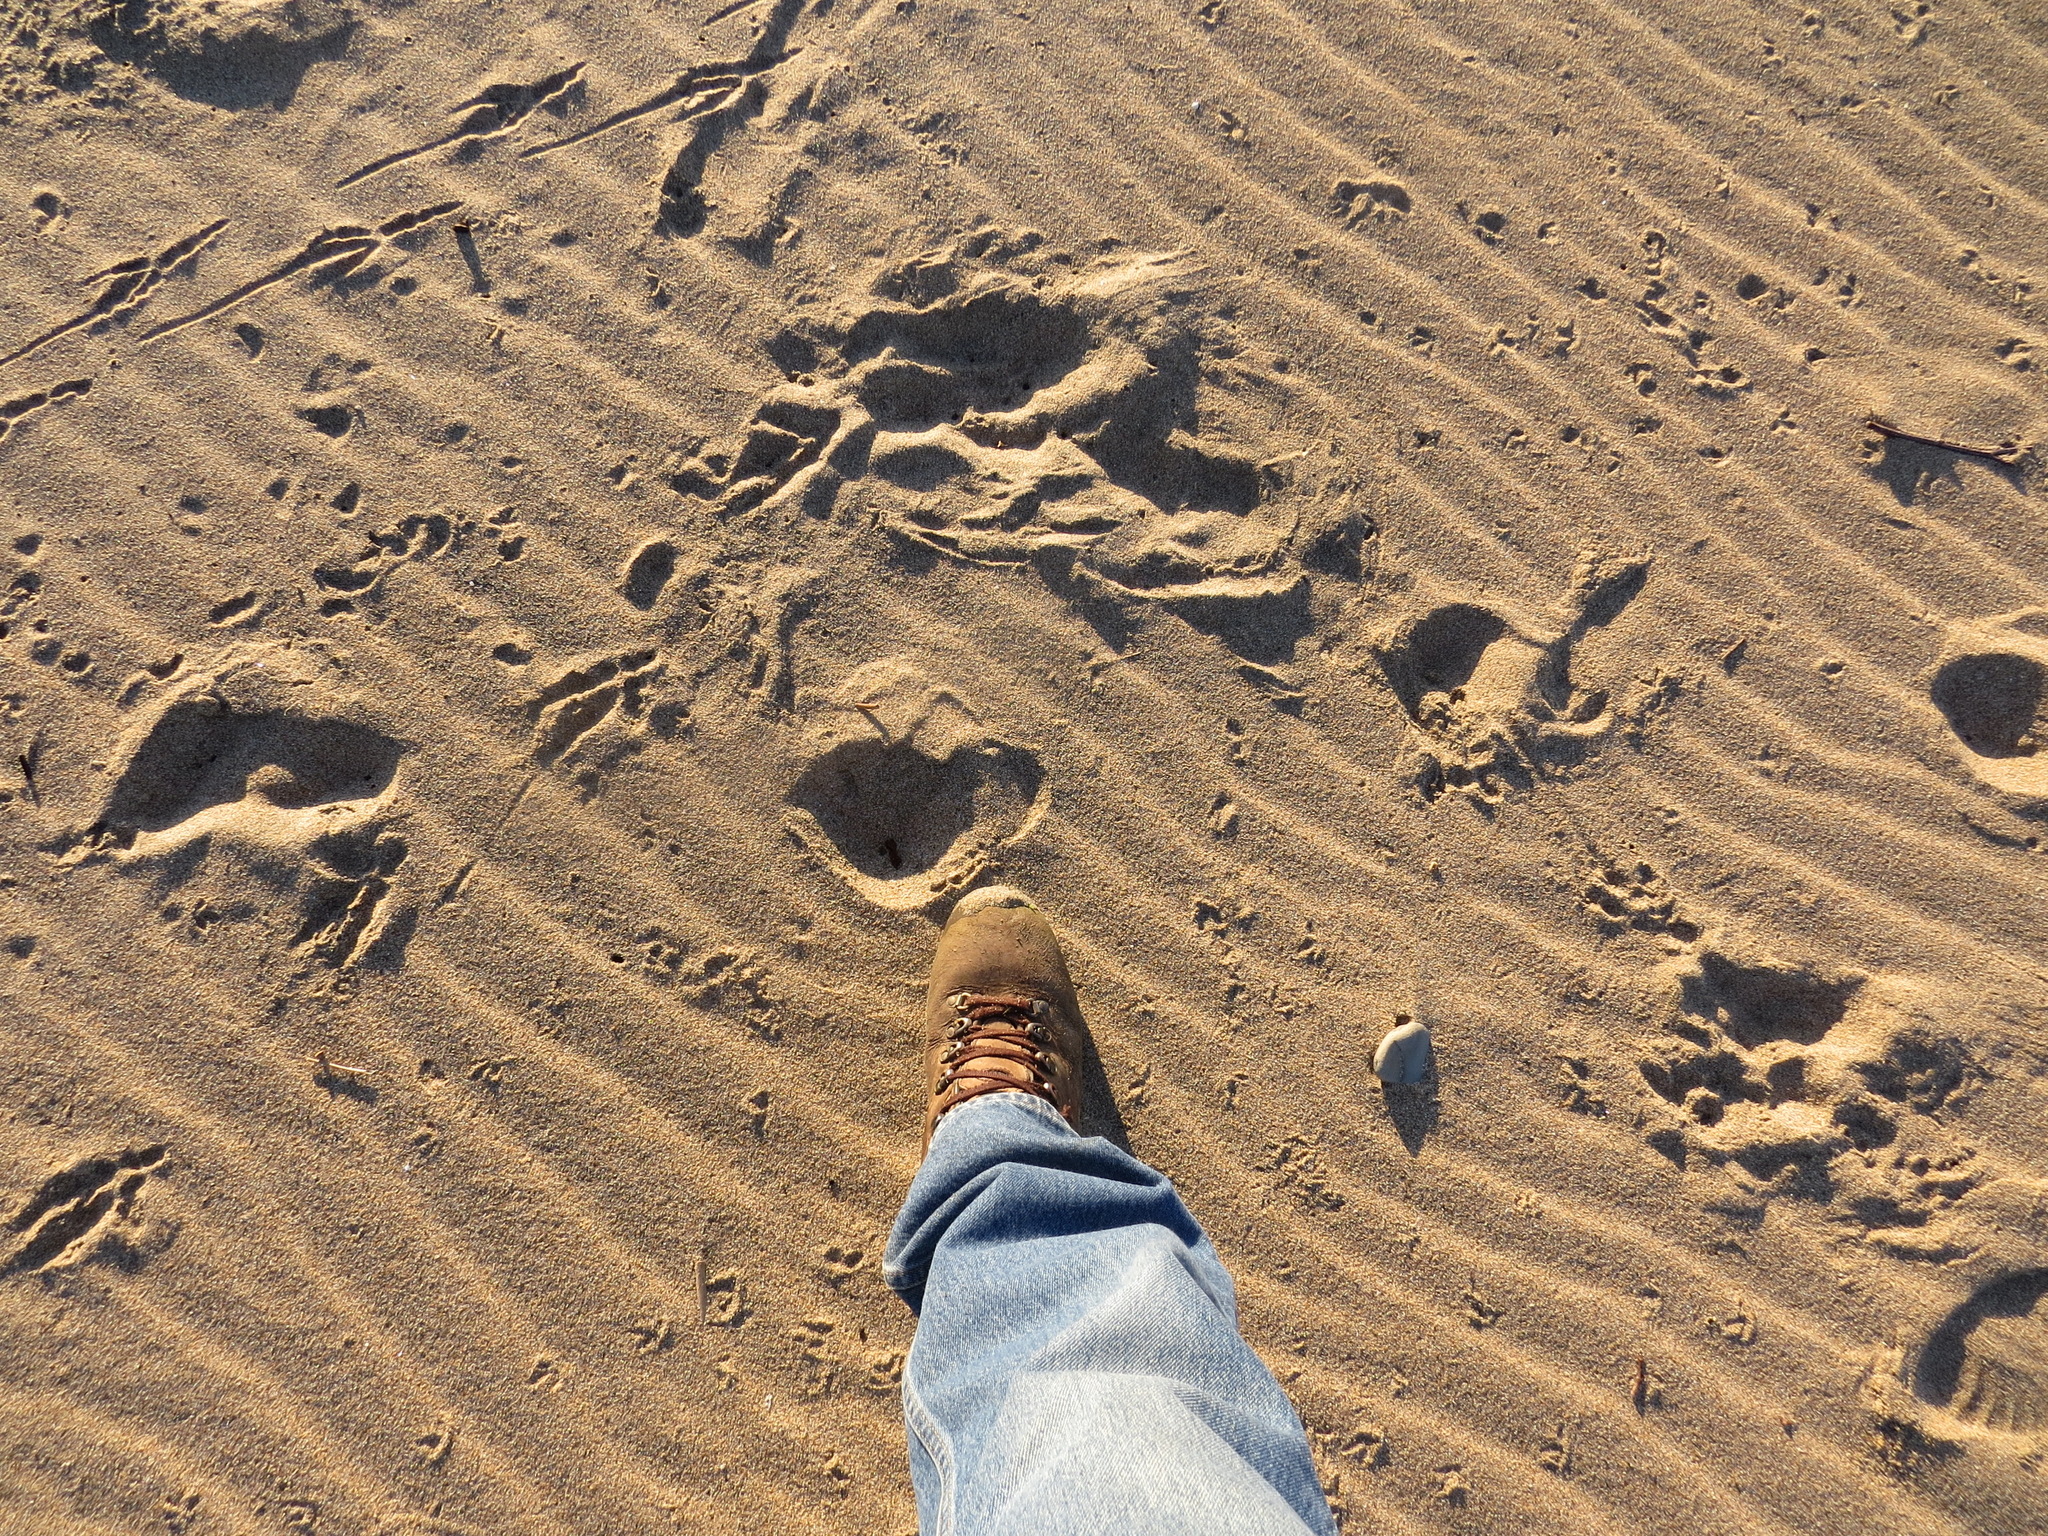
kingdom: Animalia
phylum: Chordata
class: Aves
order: Strigiformes
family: Strigidae
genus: Bubo
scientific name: Bubo virginianus
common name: Great horned owl
